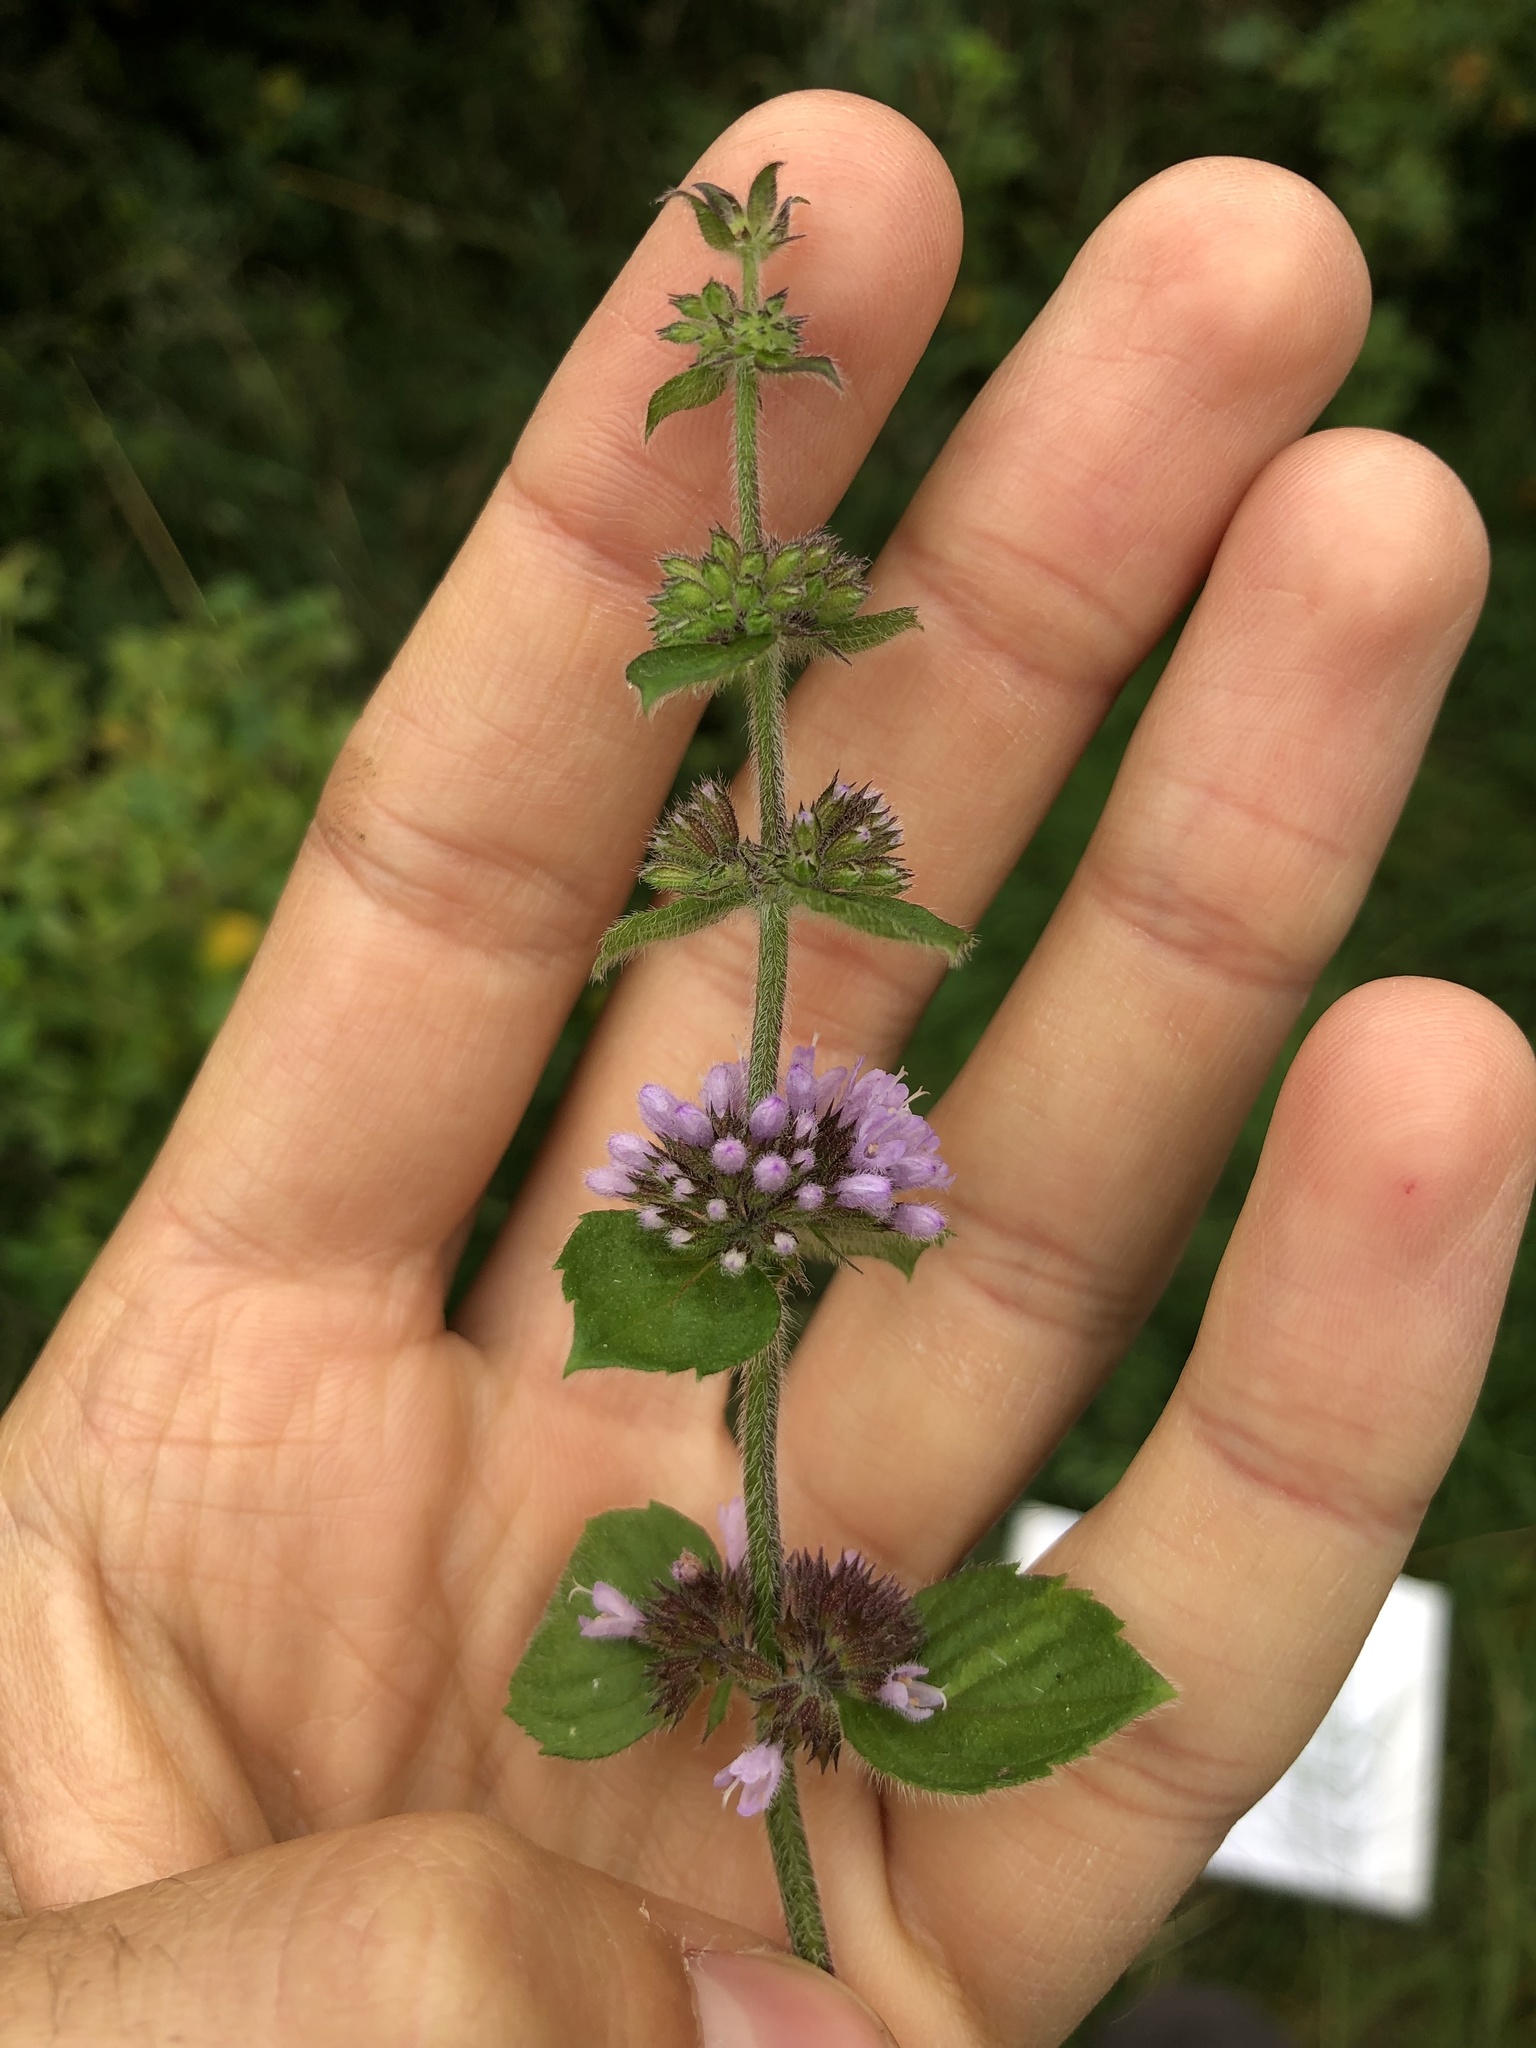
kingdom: Plantae
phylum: Tracheophyta
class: Magnoliopsida
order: Lamiales
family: Lamiaceae
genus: Mentha
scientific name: Mentha verticillata
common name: Mint
